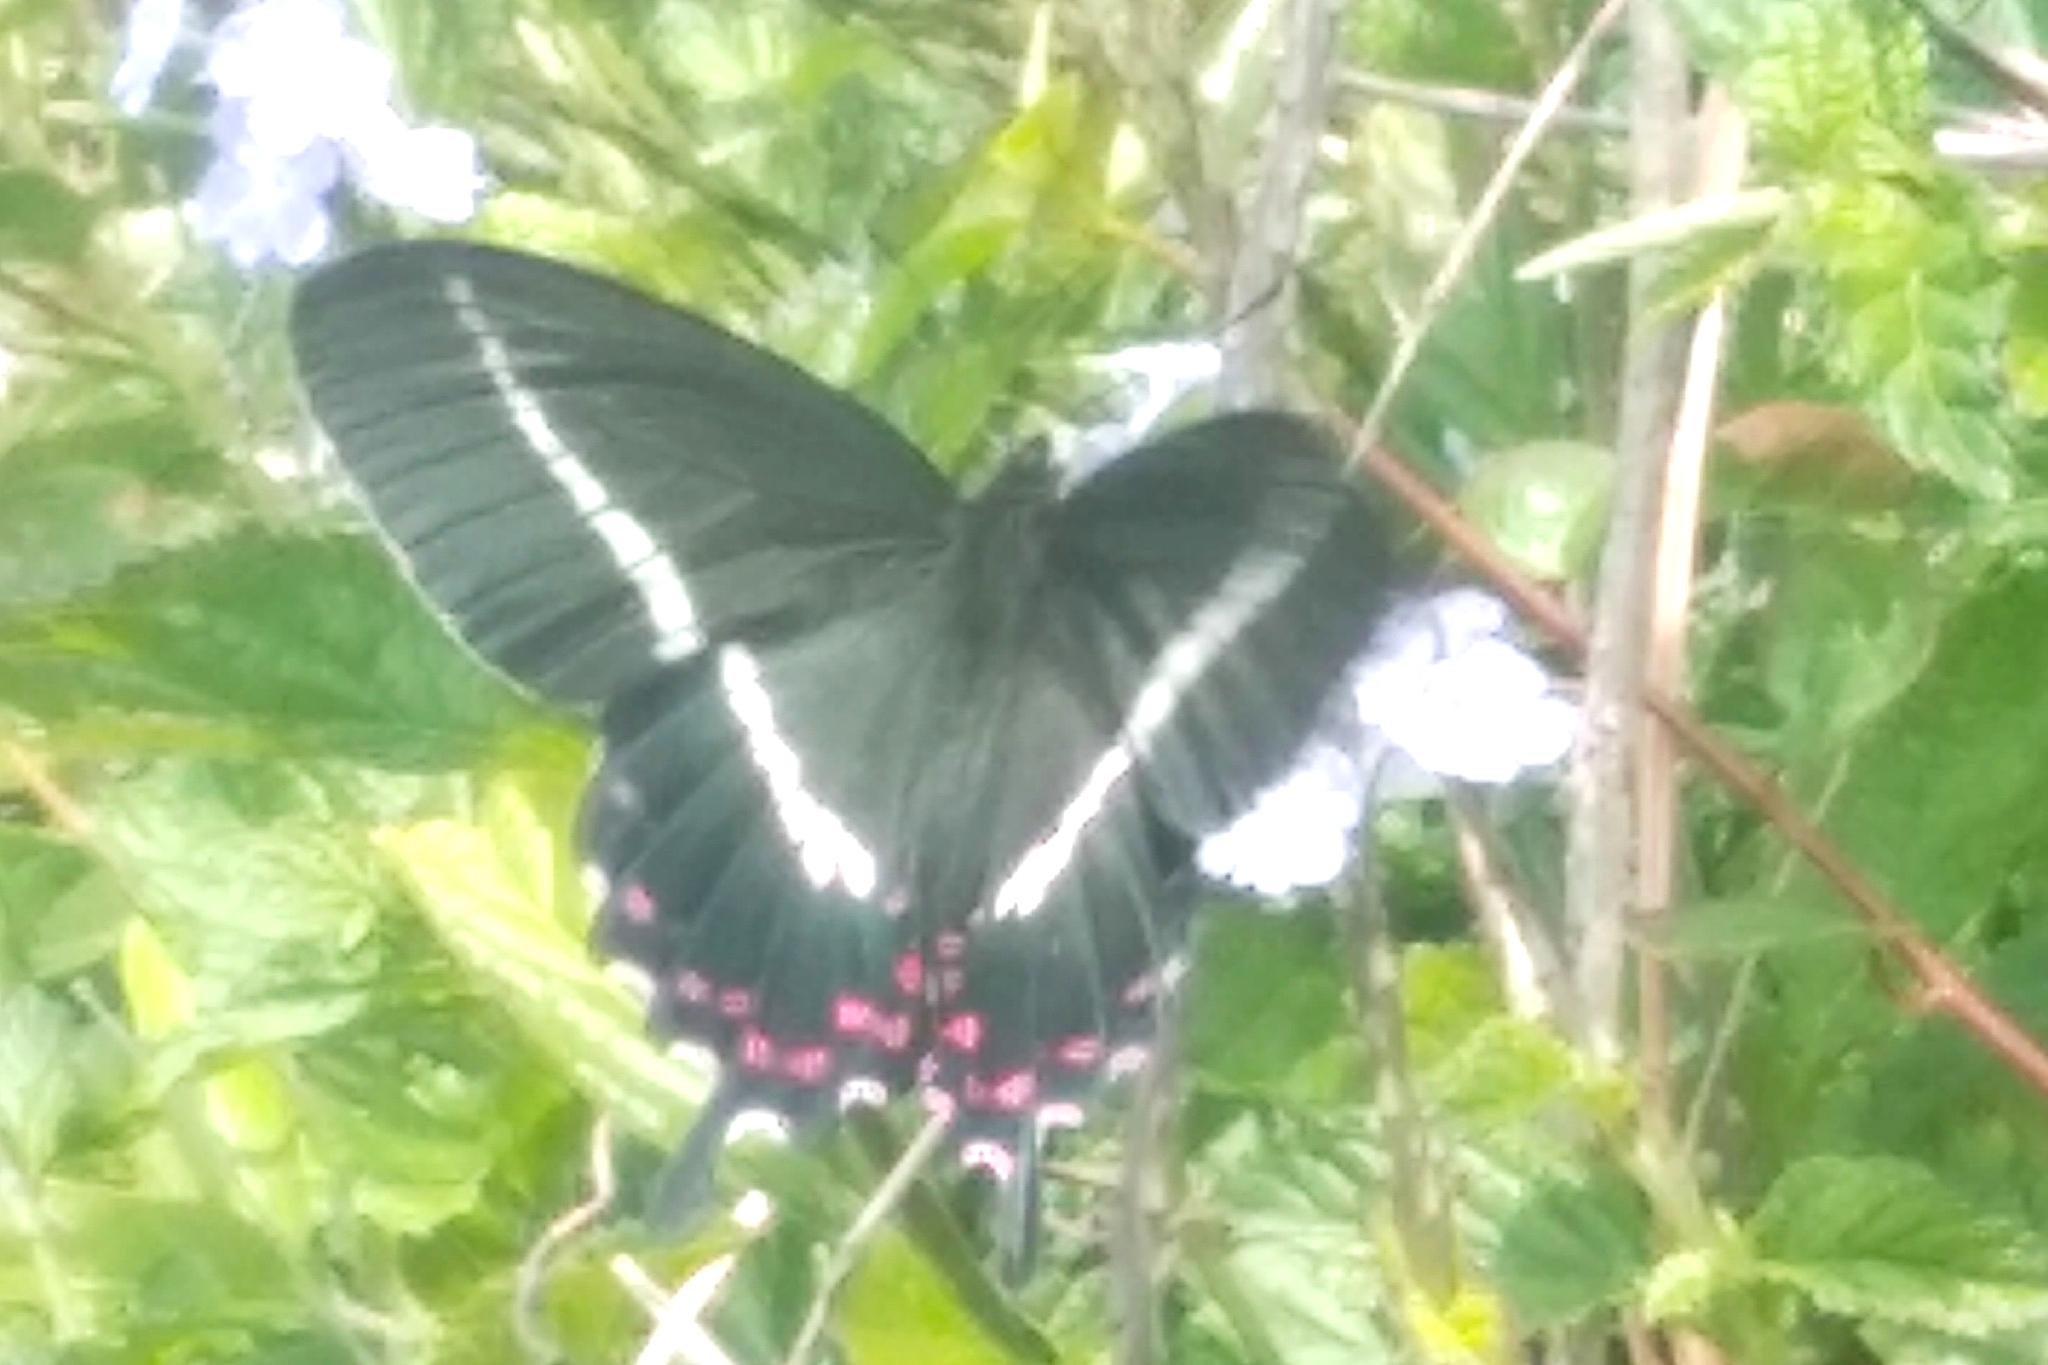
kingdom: Animalia
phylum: Arthropoda
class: Insecta
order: Lepidoptera
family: Papilionidae
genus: Parides
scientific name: Parides bunichus
